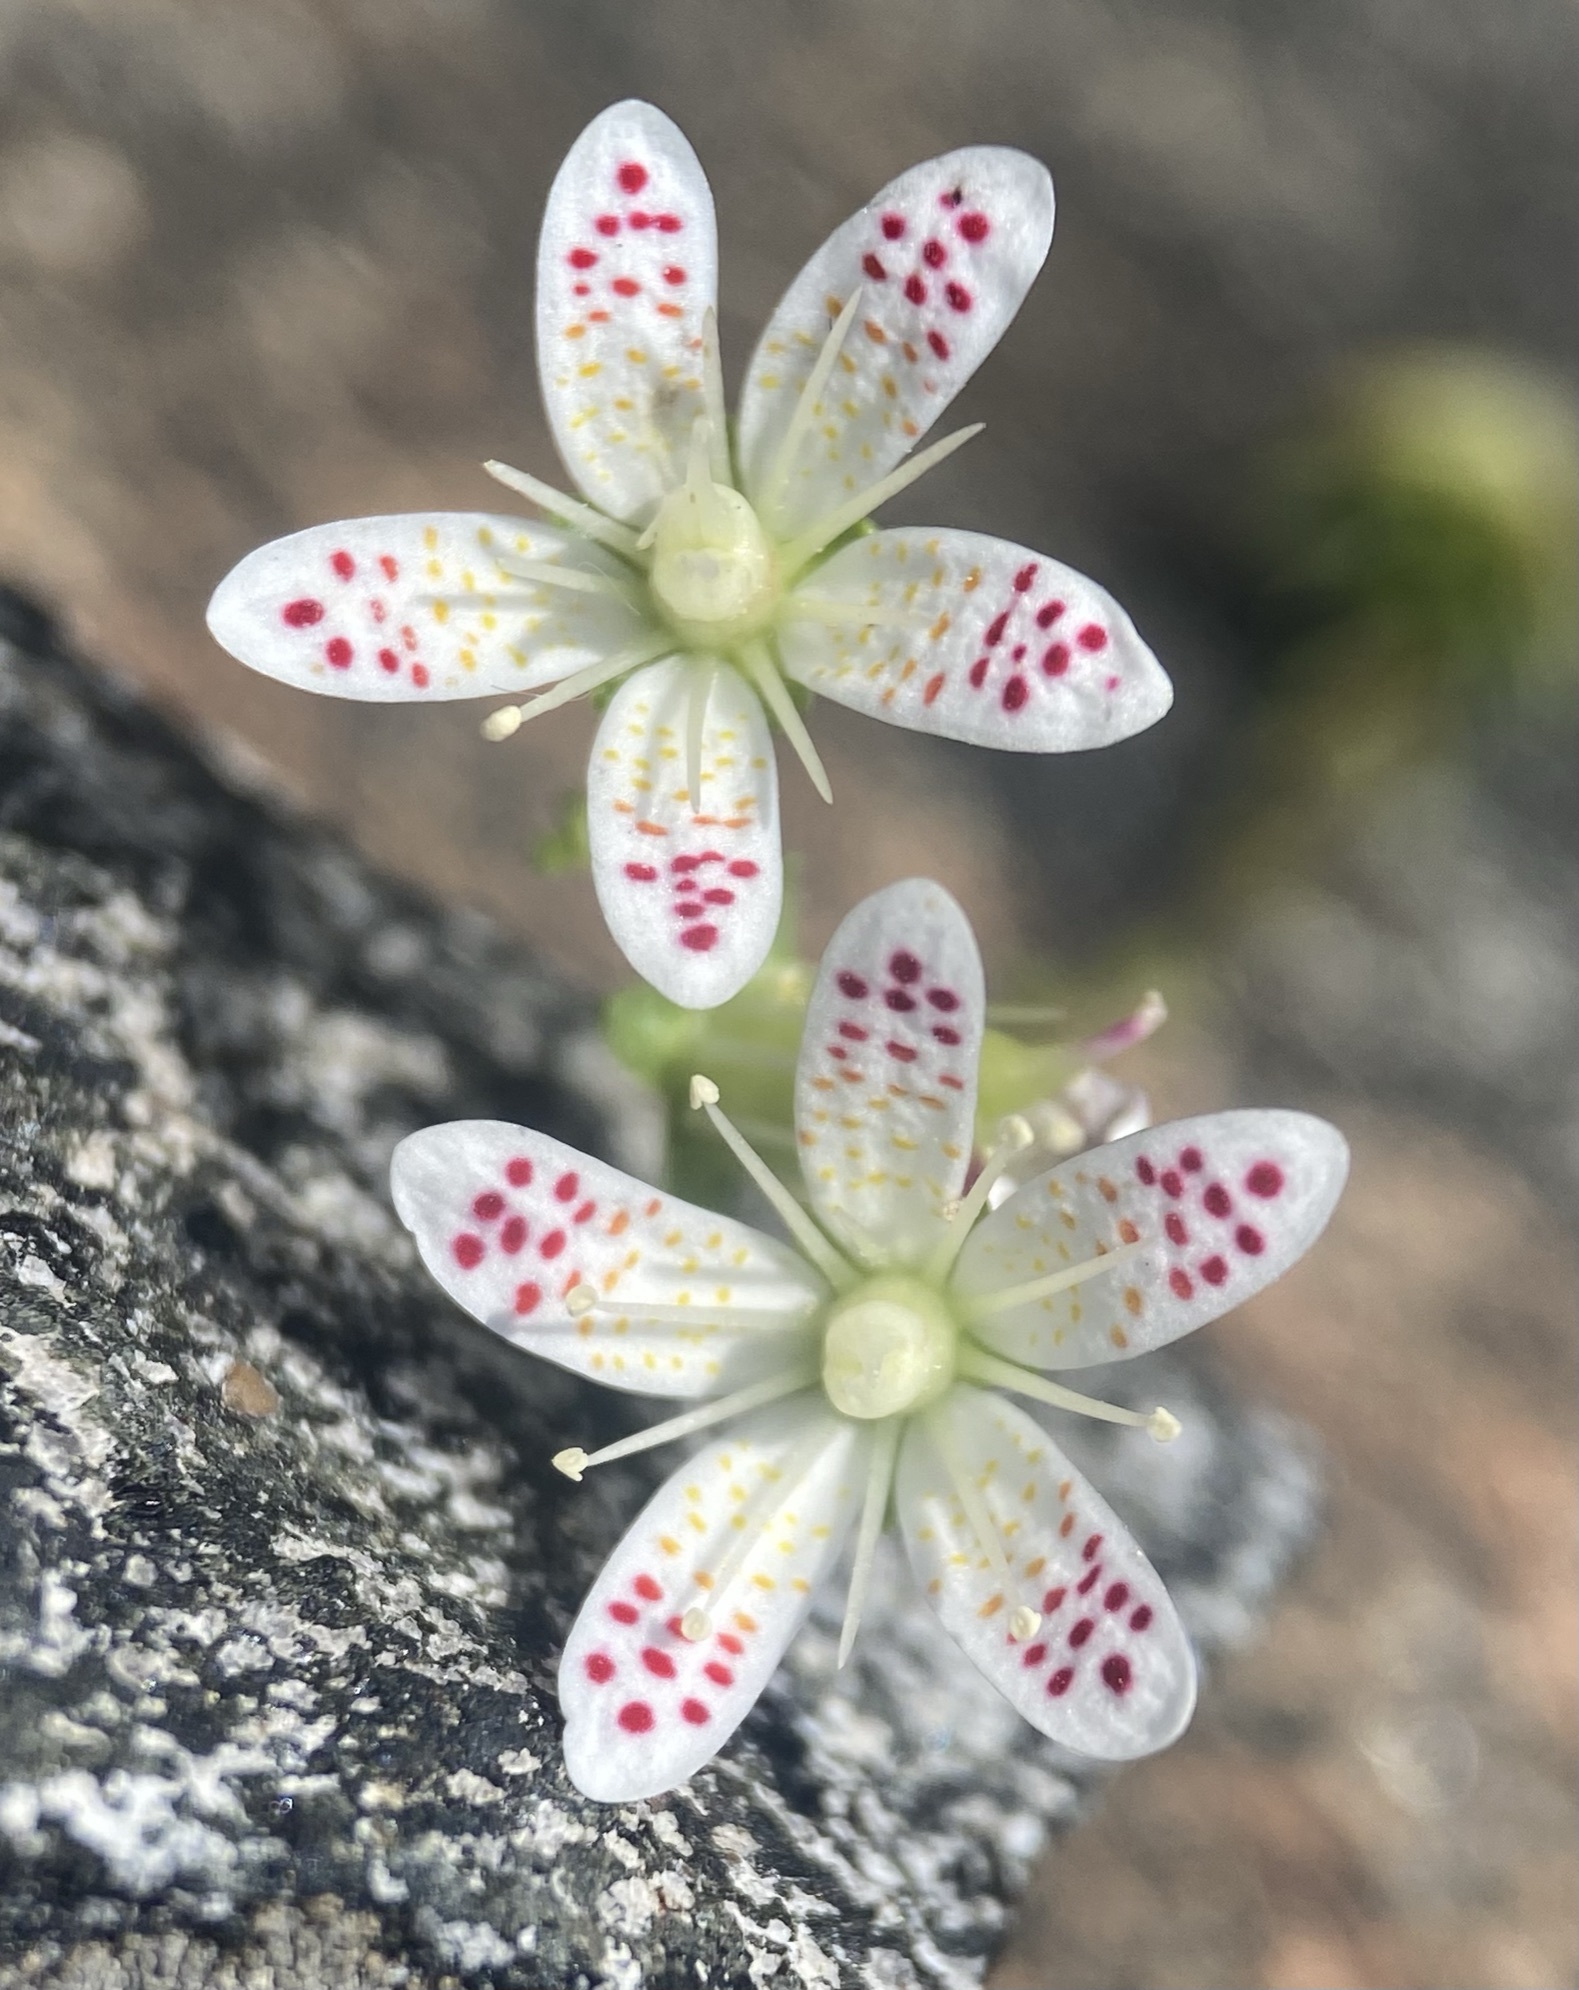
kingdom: Plantae
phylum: Tracheophyta
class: Magnoliopsida
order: Saxifragales
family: Saxifragaceae
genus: Saxifraga
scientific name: Saxifraga bronchialis
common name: Matted saxifrage
